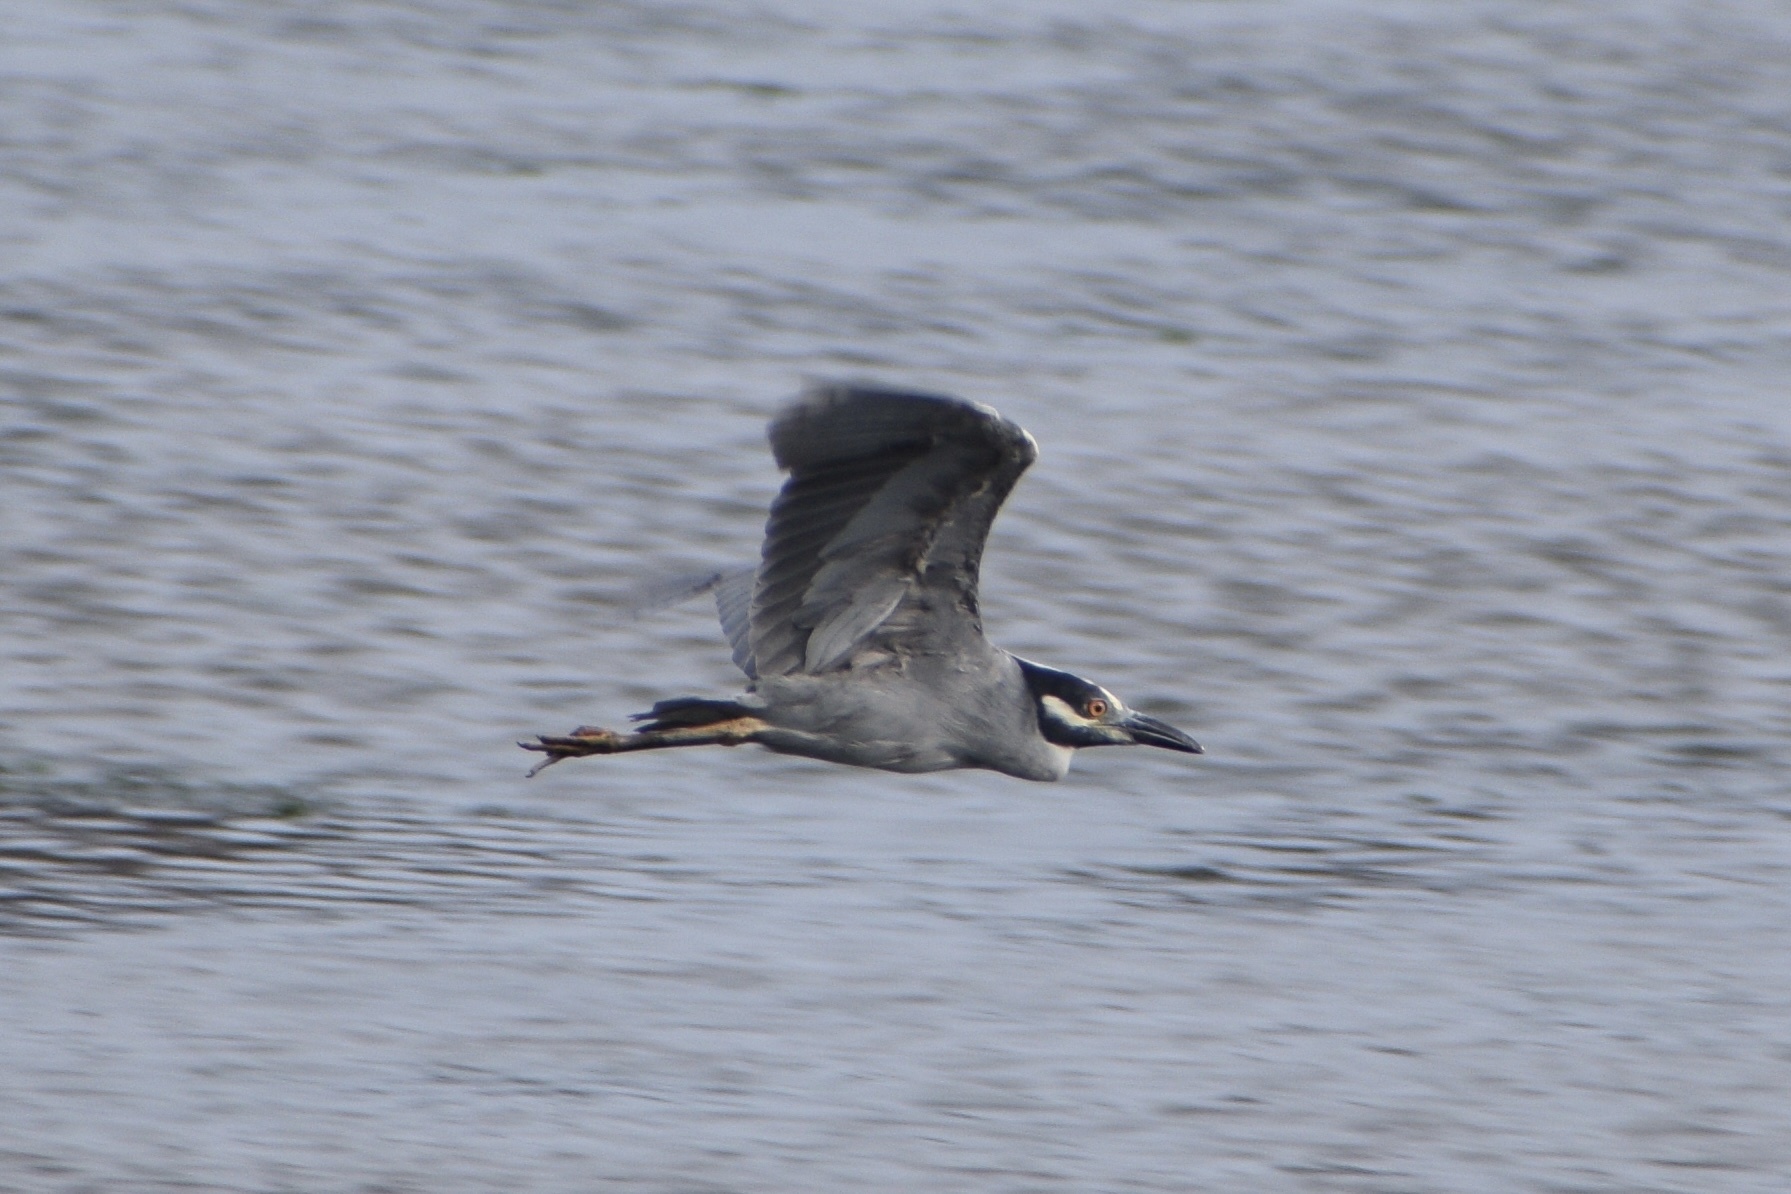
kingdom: Animalia
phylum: Chordata
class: Aves
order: Pelecaniformes
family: Ardeidae
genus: Nyctanassa
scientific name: Nyctanassa violacea
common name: Yellow-crowned night heron
